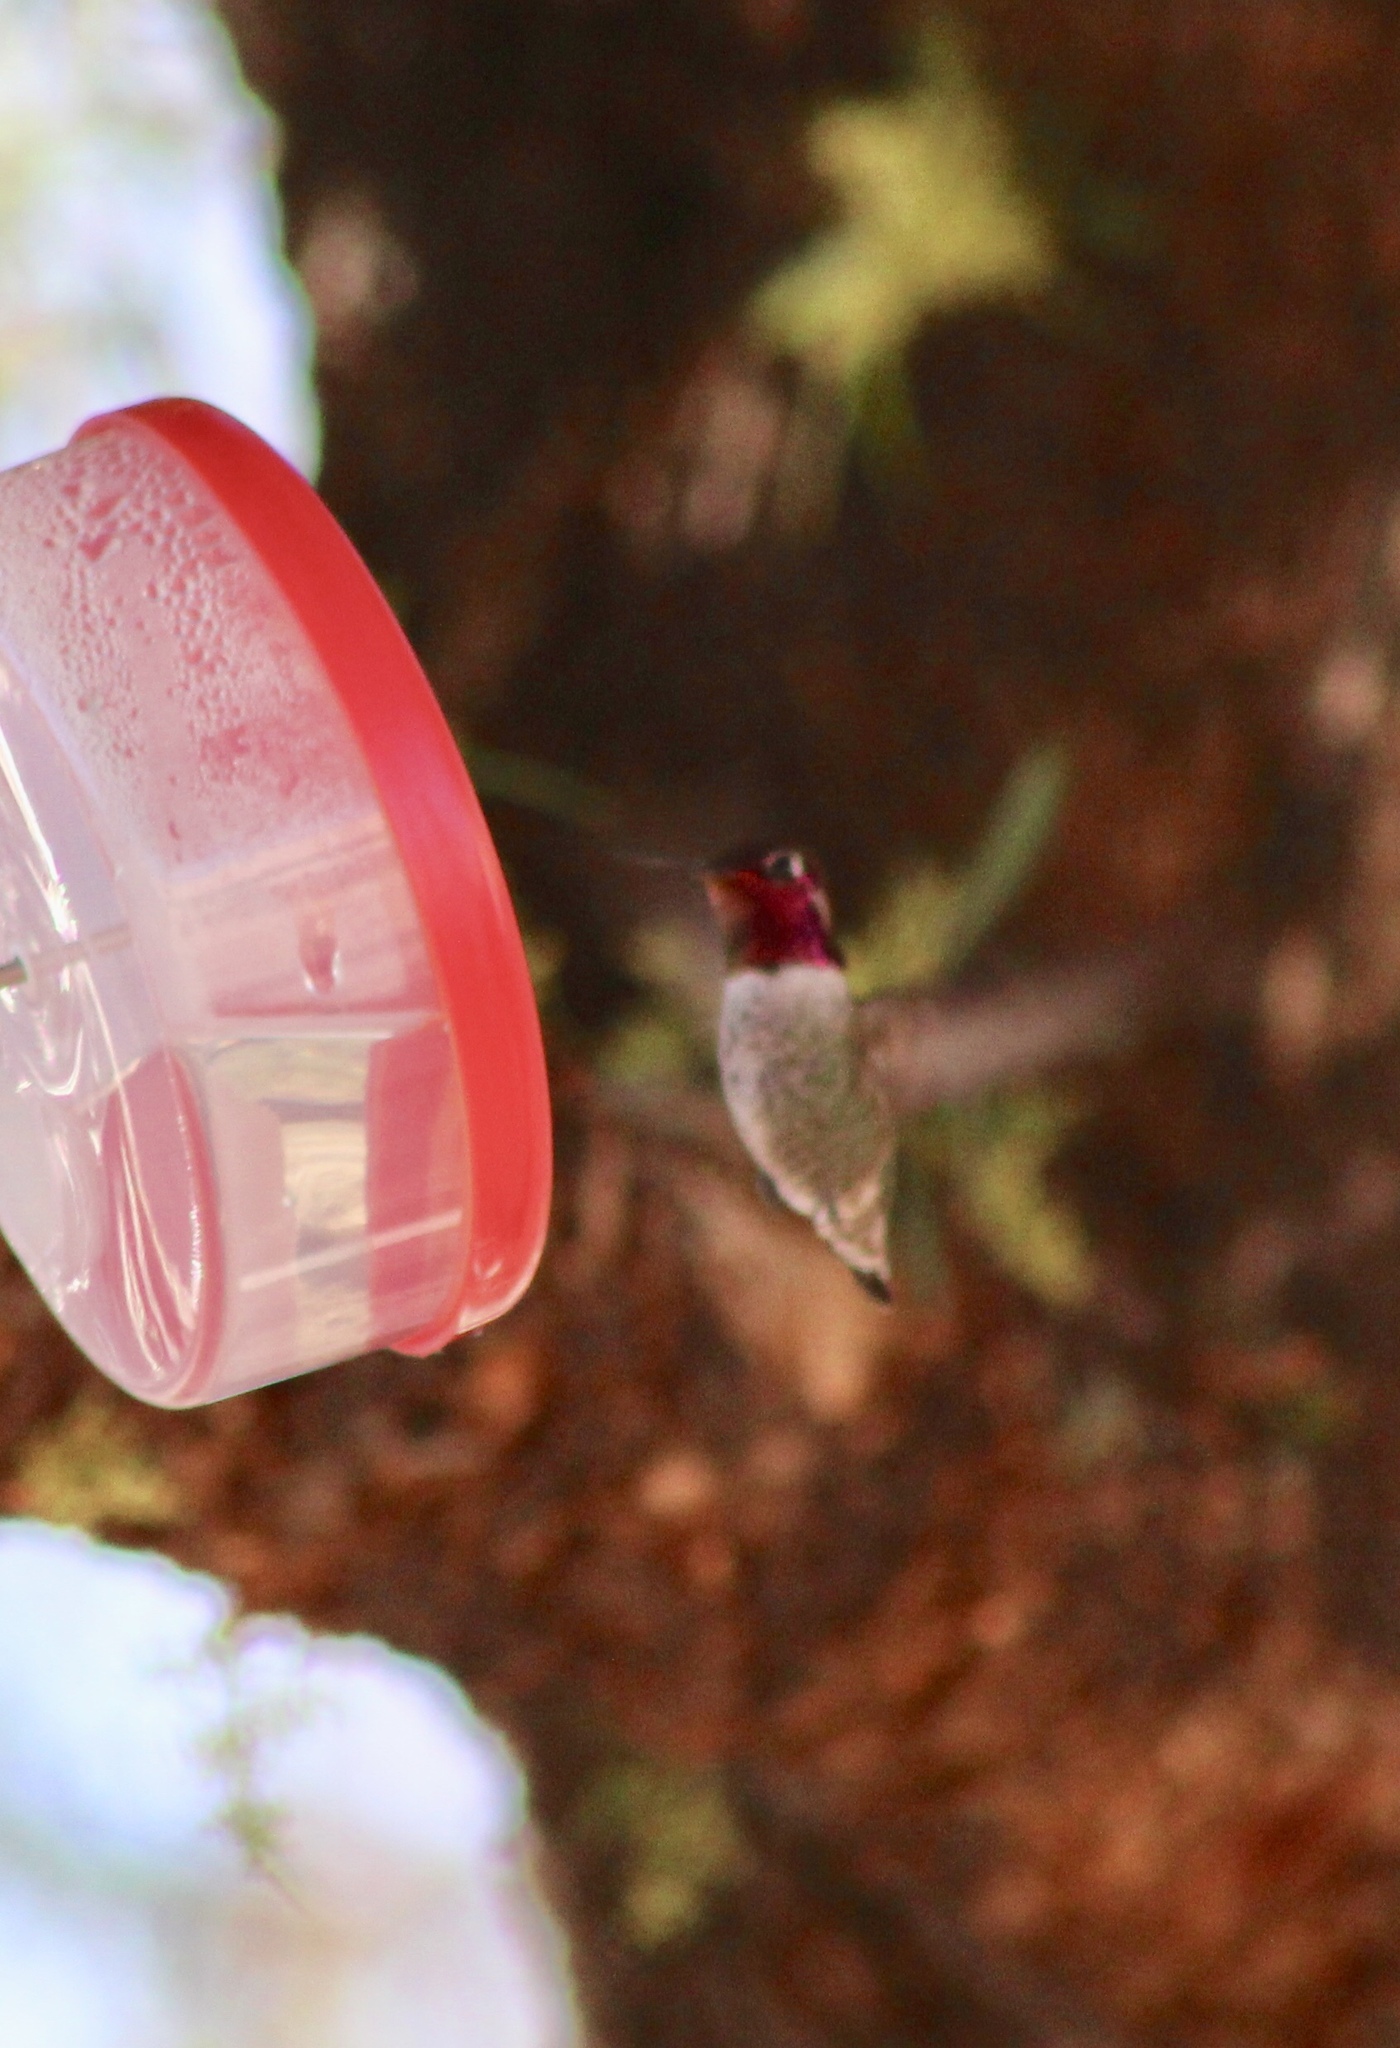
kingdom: Animalia
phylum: Chordata
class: Aves
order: Apodiformes
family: Trochilidae
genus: Calypte
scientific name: Calypte anna
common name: Anna's hummingbird
